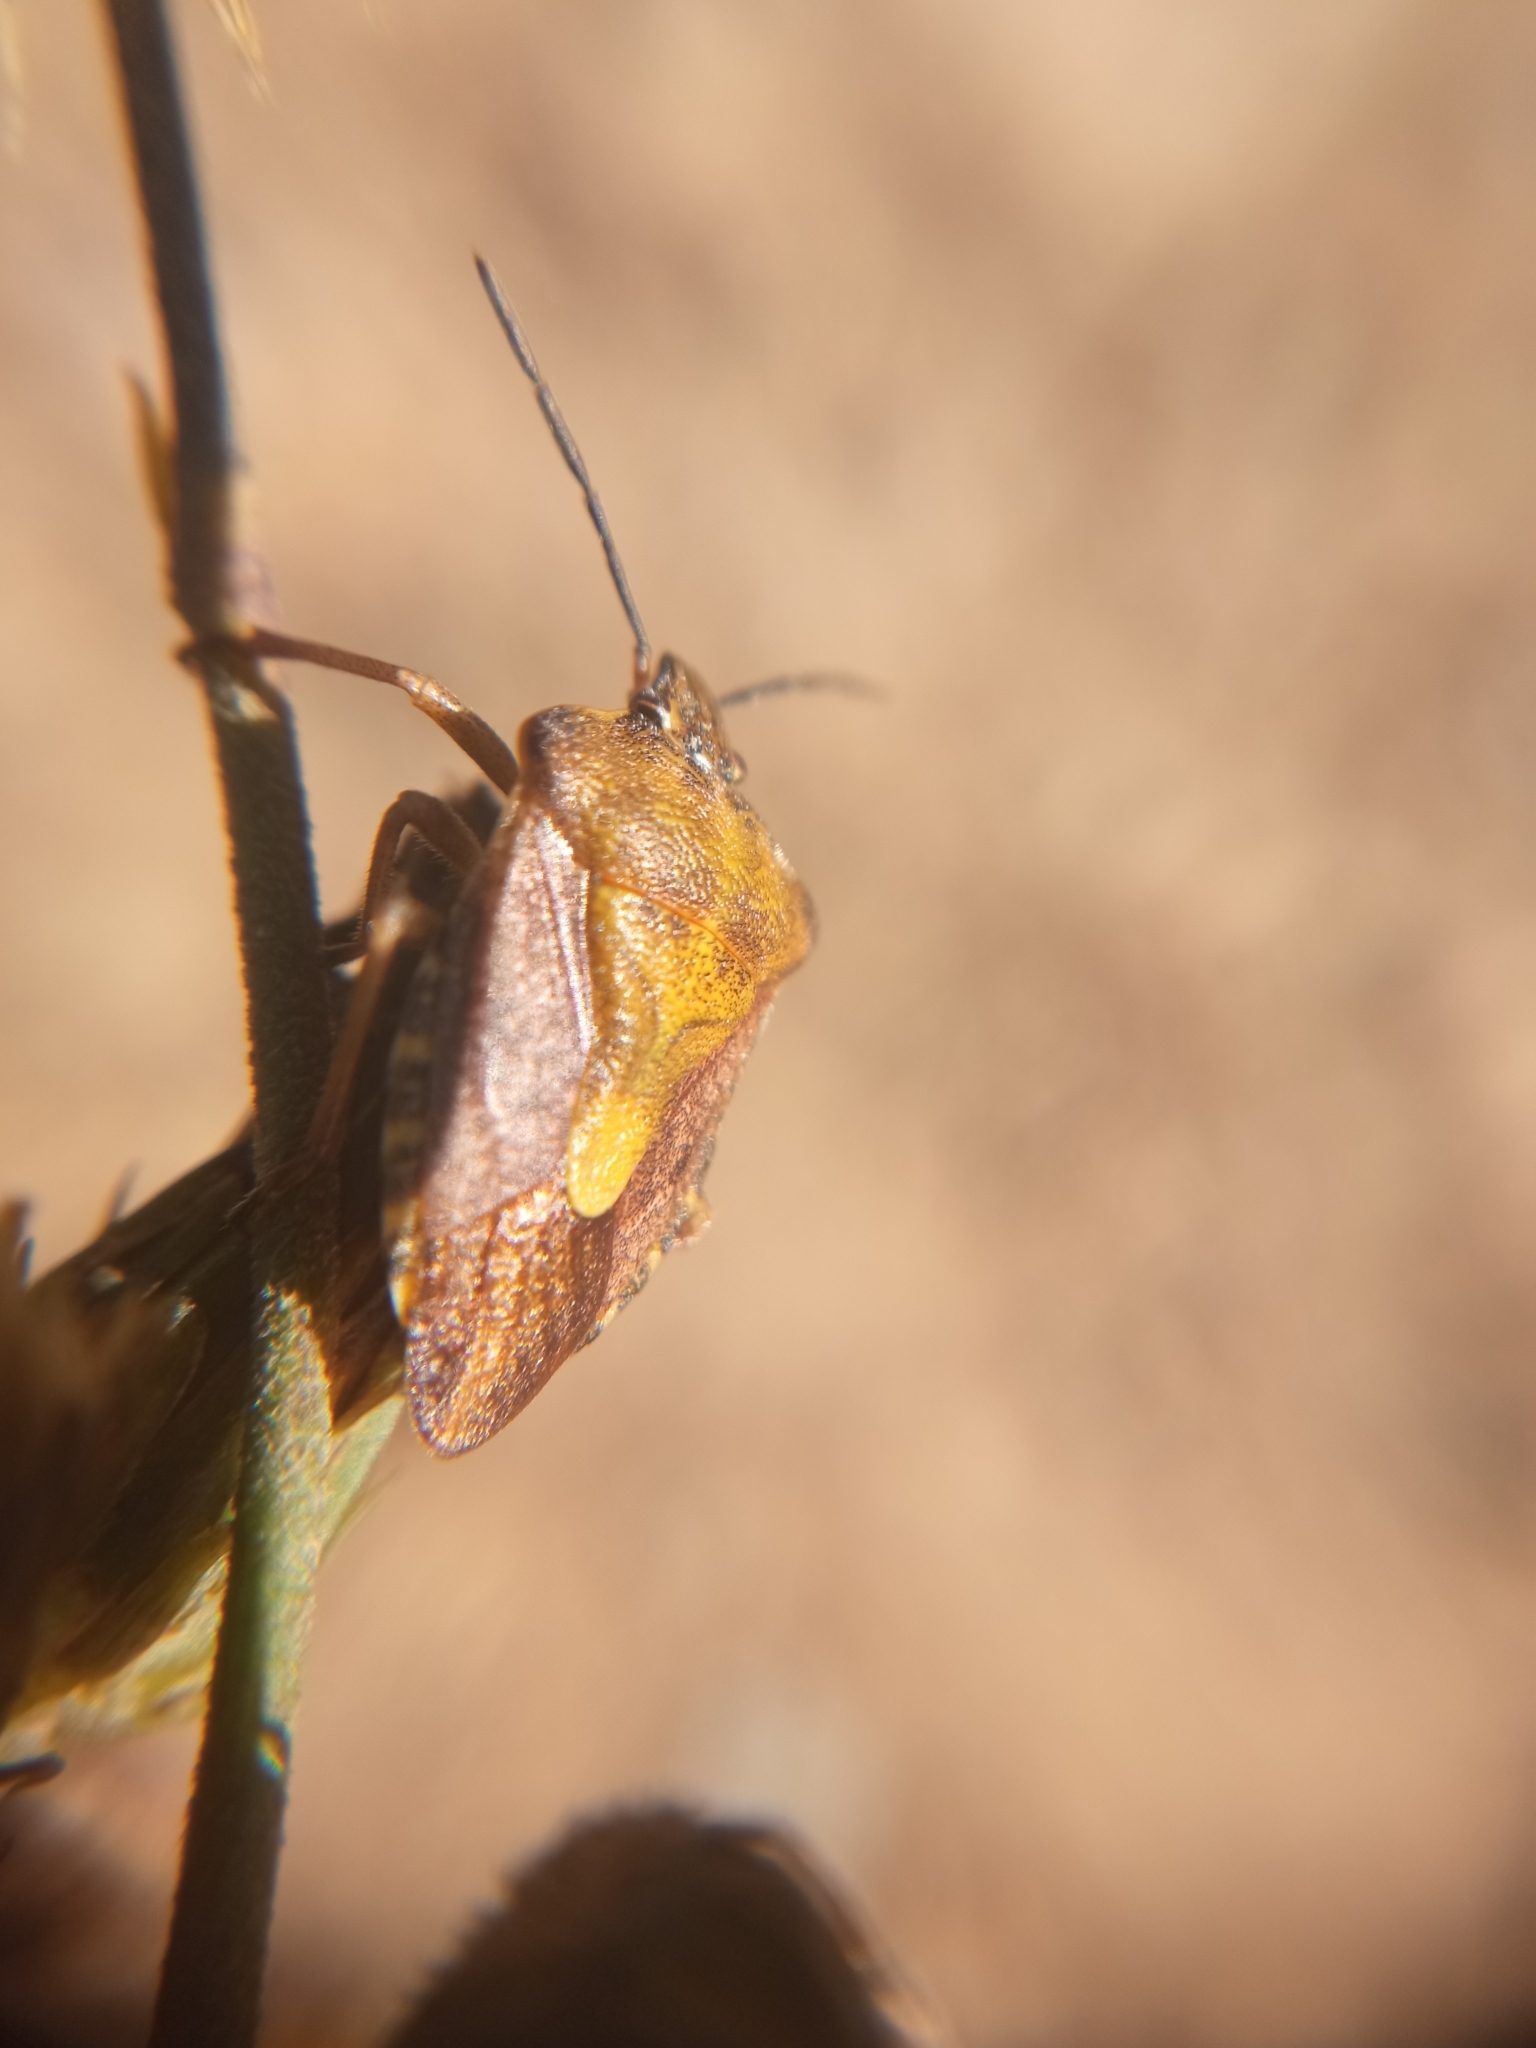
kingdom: Animalia
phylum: Arthropoda
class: Insecta
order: Hemiptera
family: Pentatomidae
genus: Carpocoris
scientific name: Carpocoris purpureipennis
